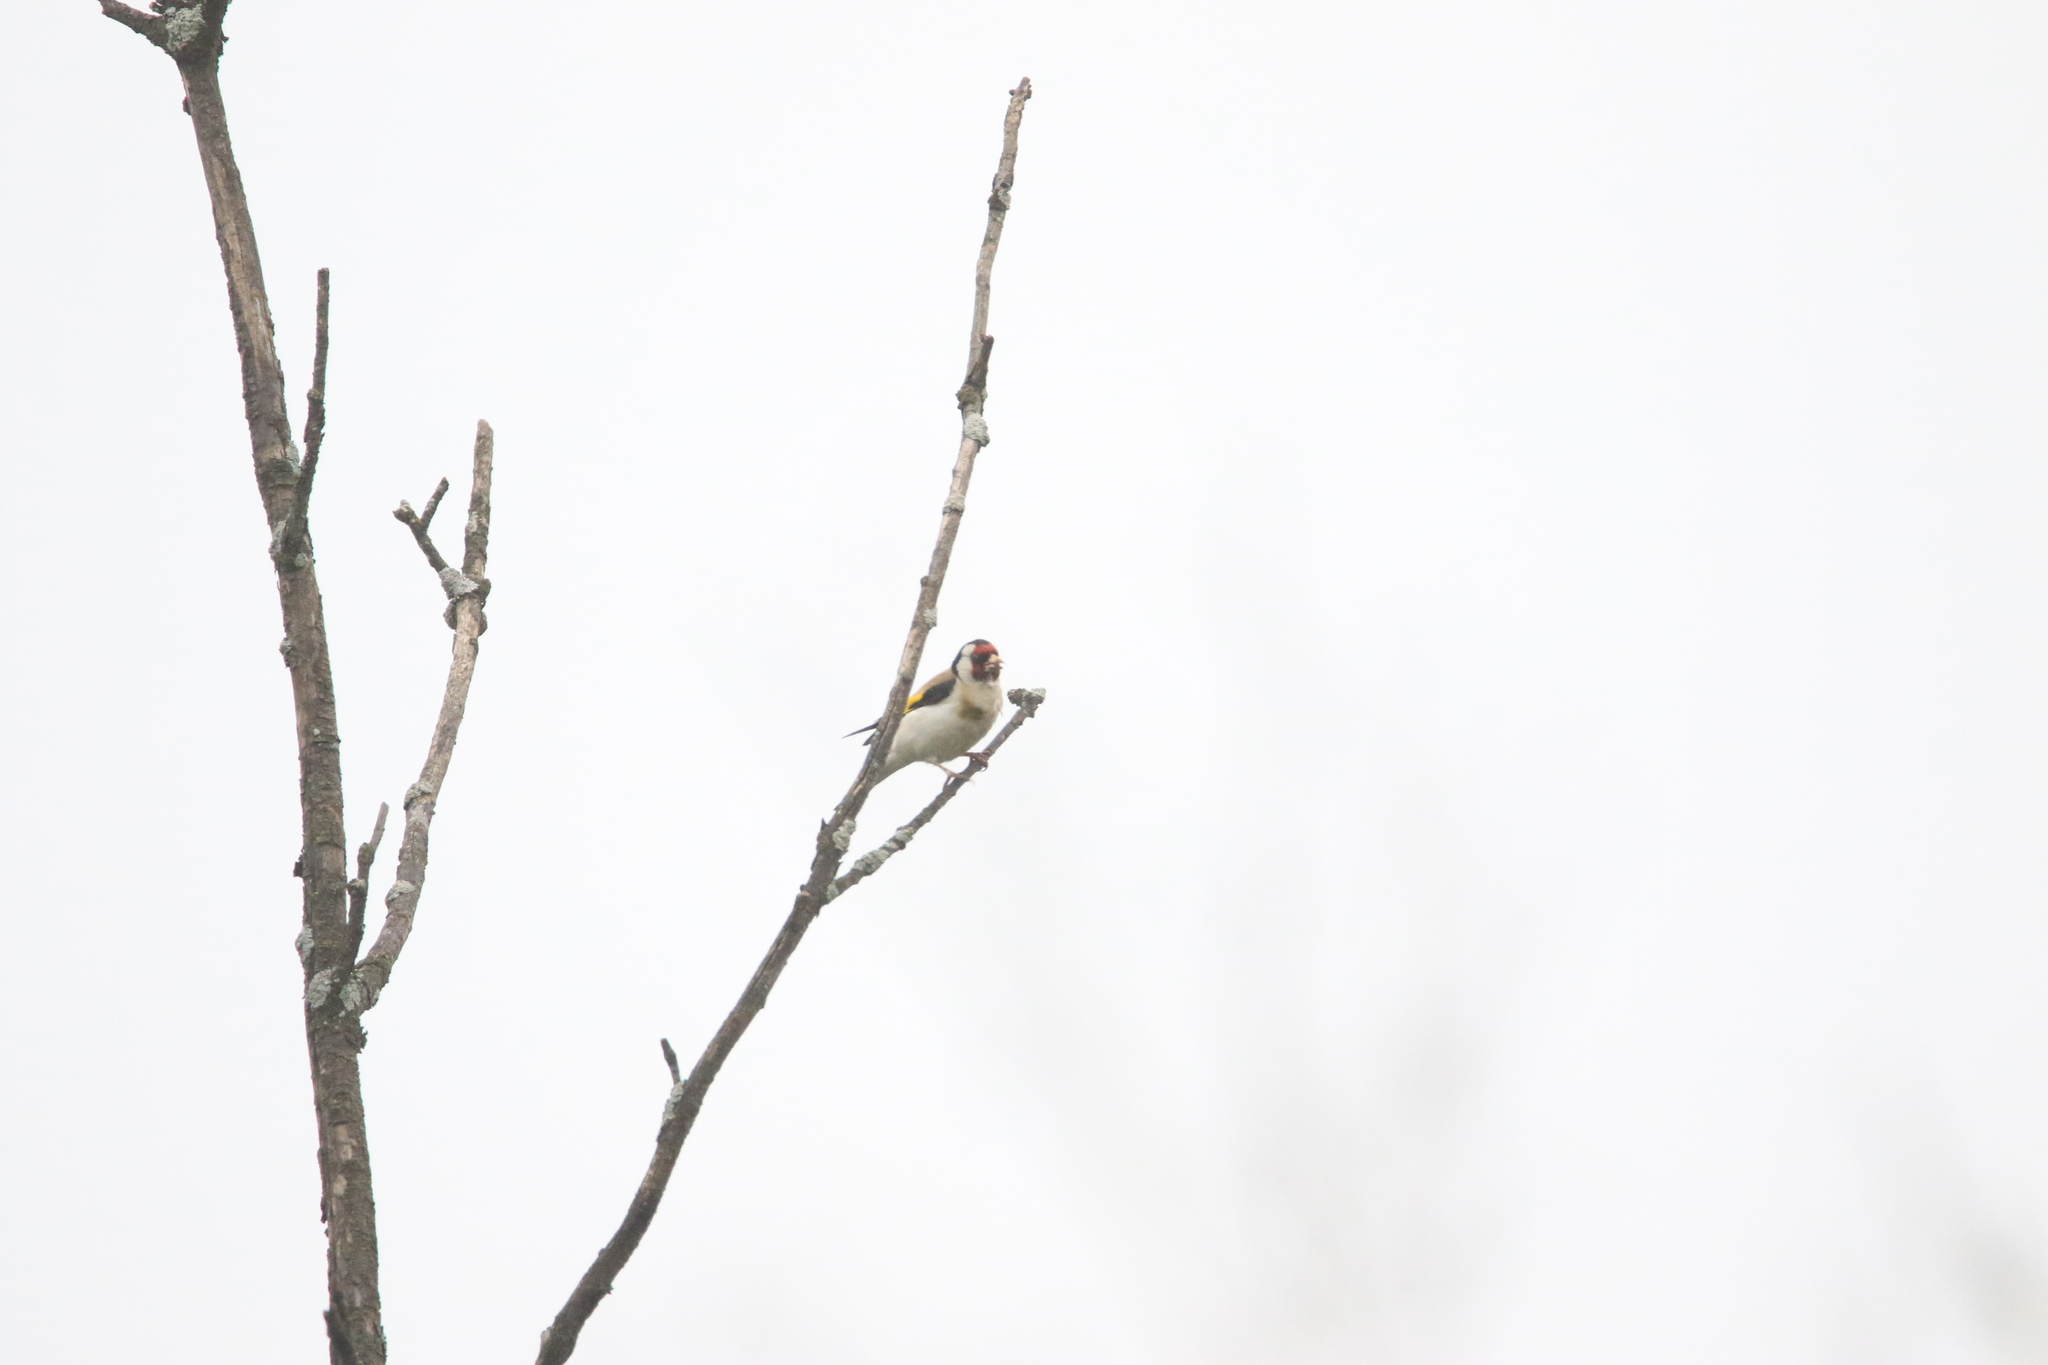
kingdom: Animalia
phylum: Chordata
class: Aves
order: Passeriformes
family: Fringillidae
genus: Carduelis
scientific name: Carduelis carduelis
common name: European goldfinch
